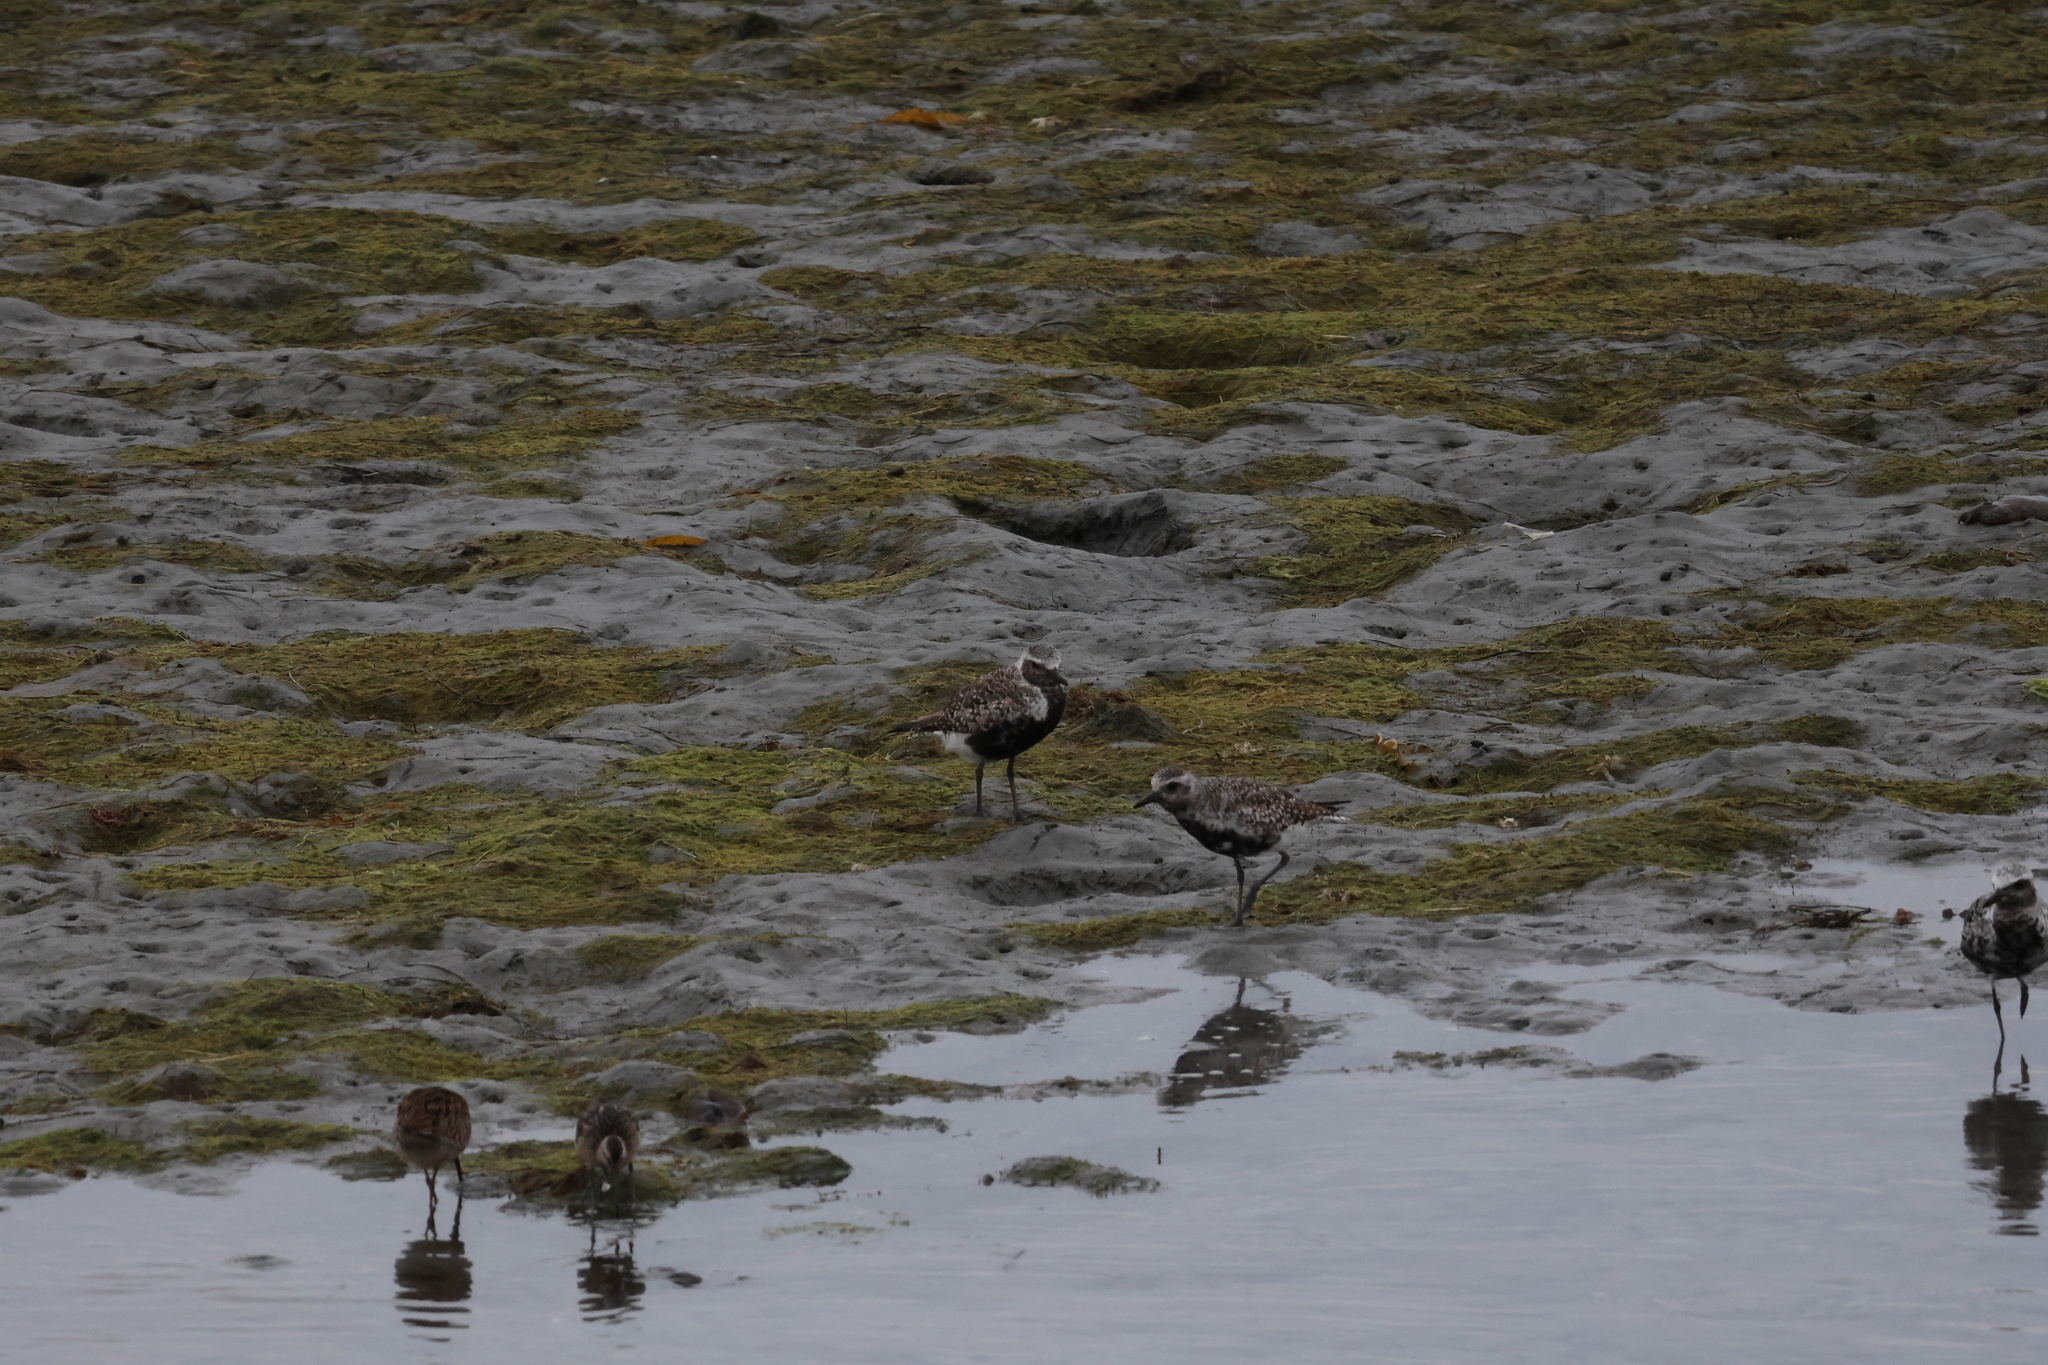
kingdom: Animalia
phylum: Chordata
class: Aves
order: Charadriiformes
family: Charadriidae
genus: Pluvialis
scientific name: Pluvialis squatarola
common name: Grey plover
